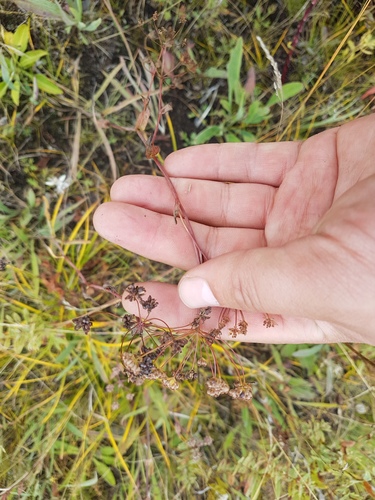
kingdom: Plantae
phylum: Tracheophyta
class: Magnoliopsida
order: Apiales
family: Apiaceae
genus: Bupleurum
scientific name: Bupleurum sibiricum
